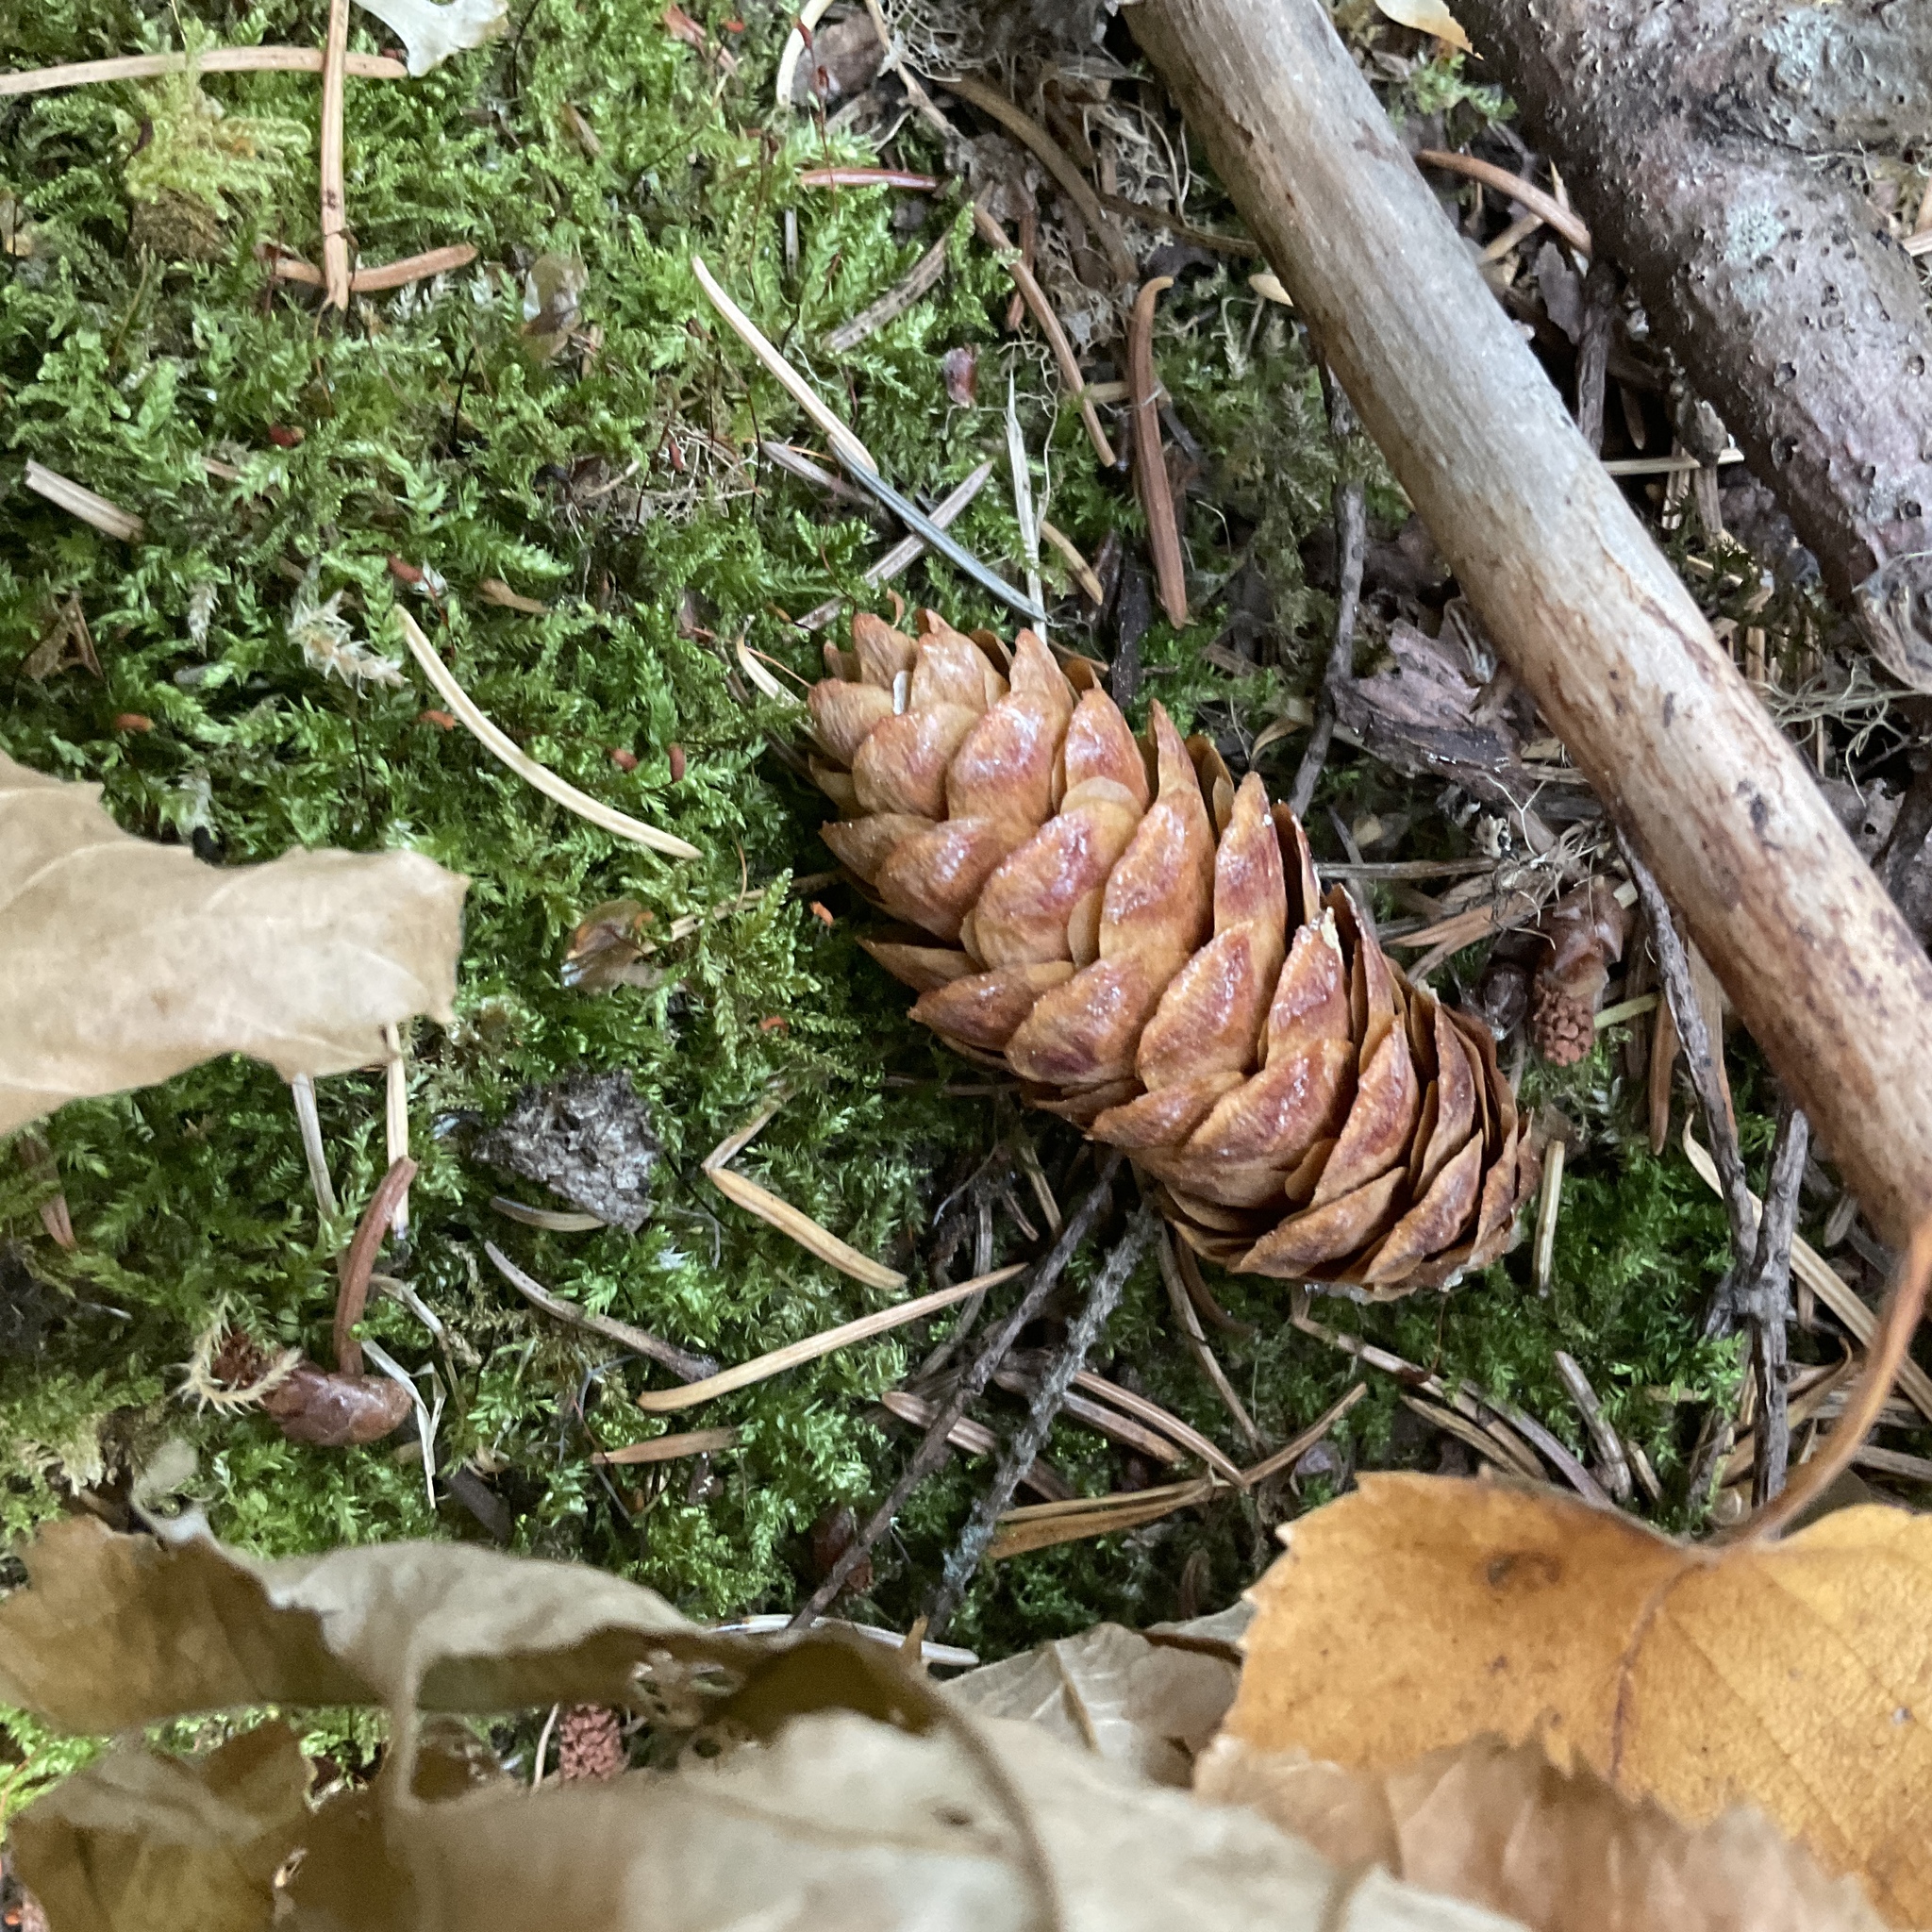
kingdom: Plantae
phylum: Tracheophyta
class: Pinopsida
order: Pinales
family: Pinaceae
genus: Picea
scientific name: Picea glauca
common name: White spruce
